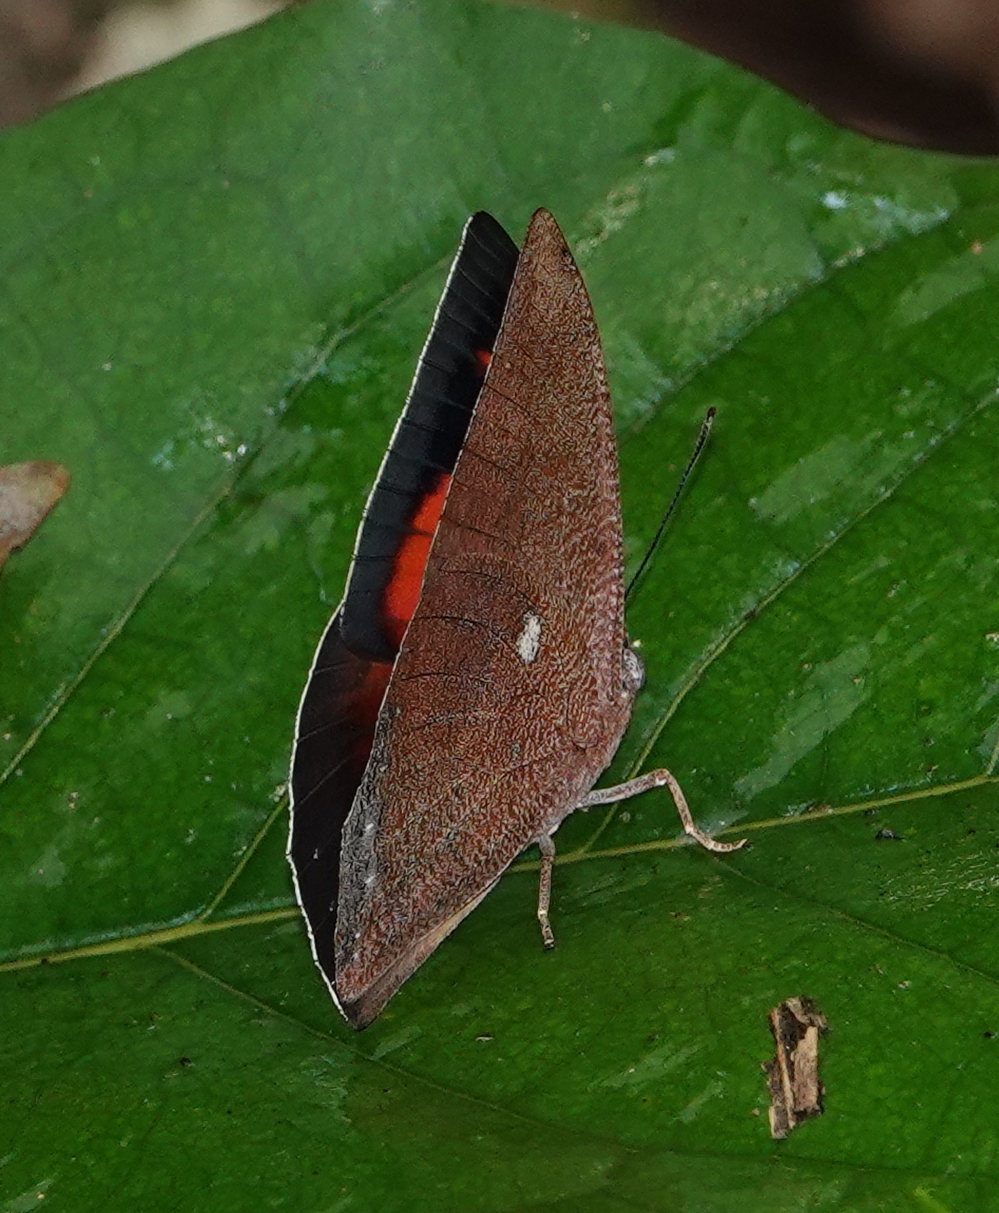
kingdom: Animalia
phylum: Arthropoda
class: Insecta
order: Lepidoptera
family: Nymphalidae
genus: Anaea
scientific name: Anaea ryphea
